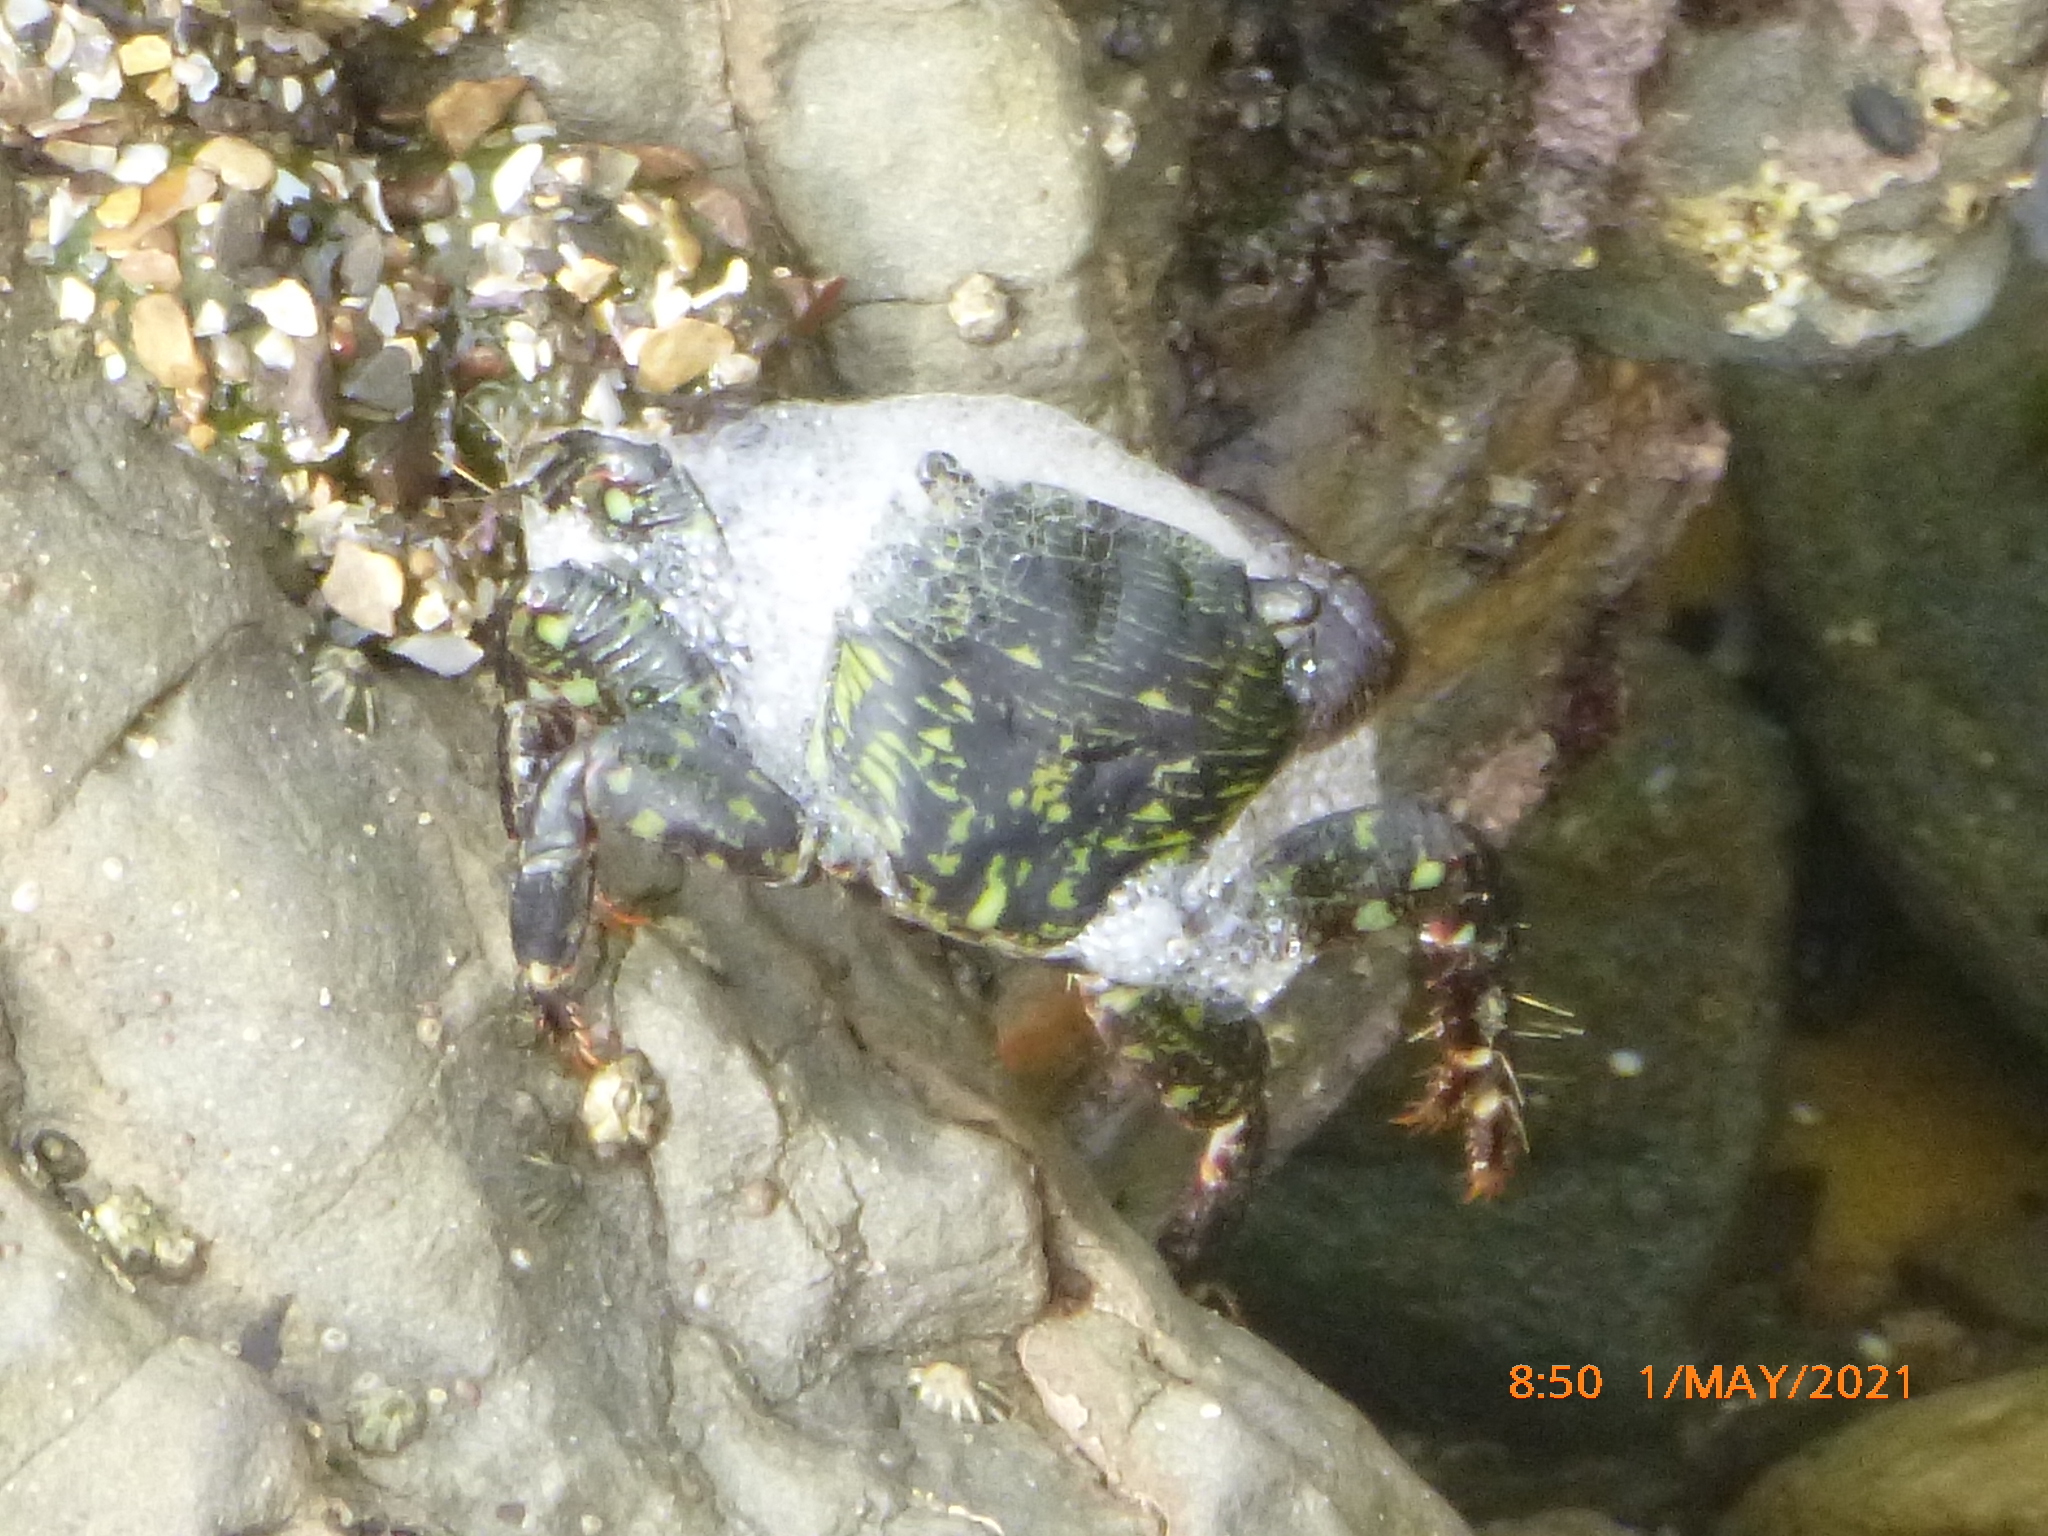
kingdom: Animalia
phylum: Arthropoda
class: Malacostraca
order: Decapoda
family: Grapsidae
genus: Pachygrapsus
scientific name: Pachygrapsus crassipes
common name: Striped shore crab
